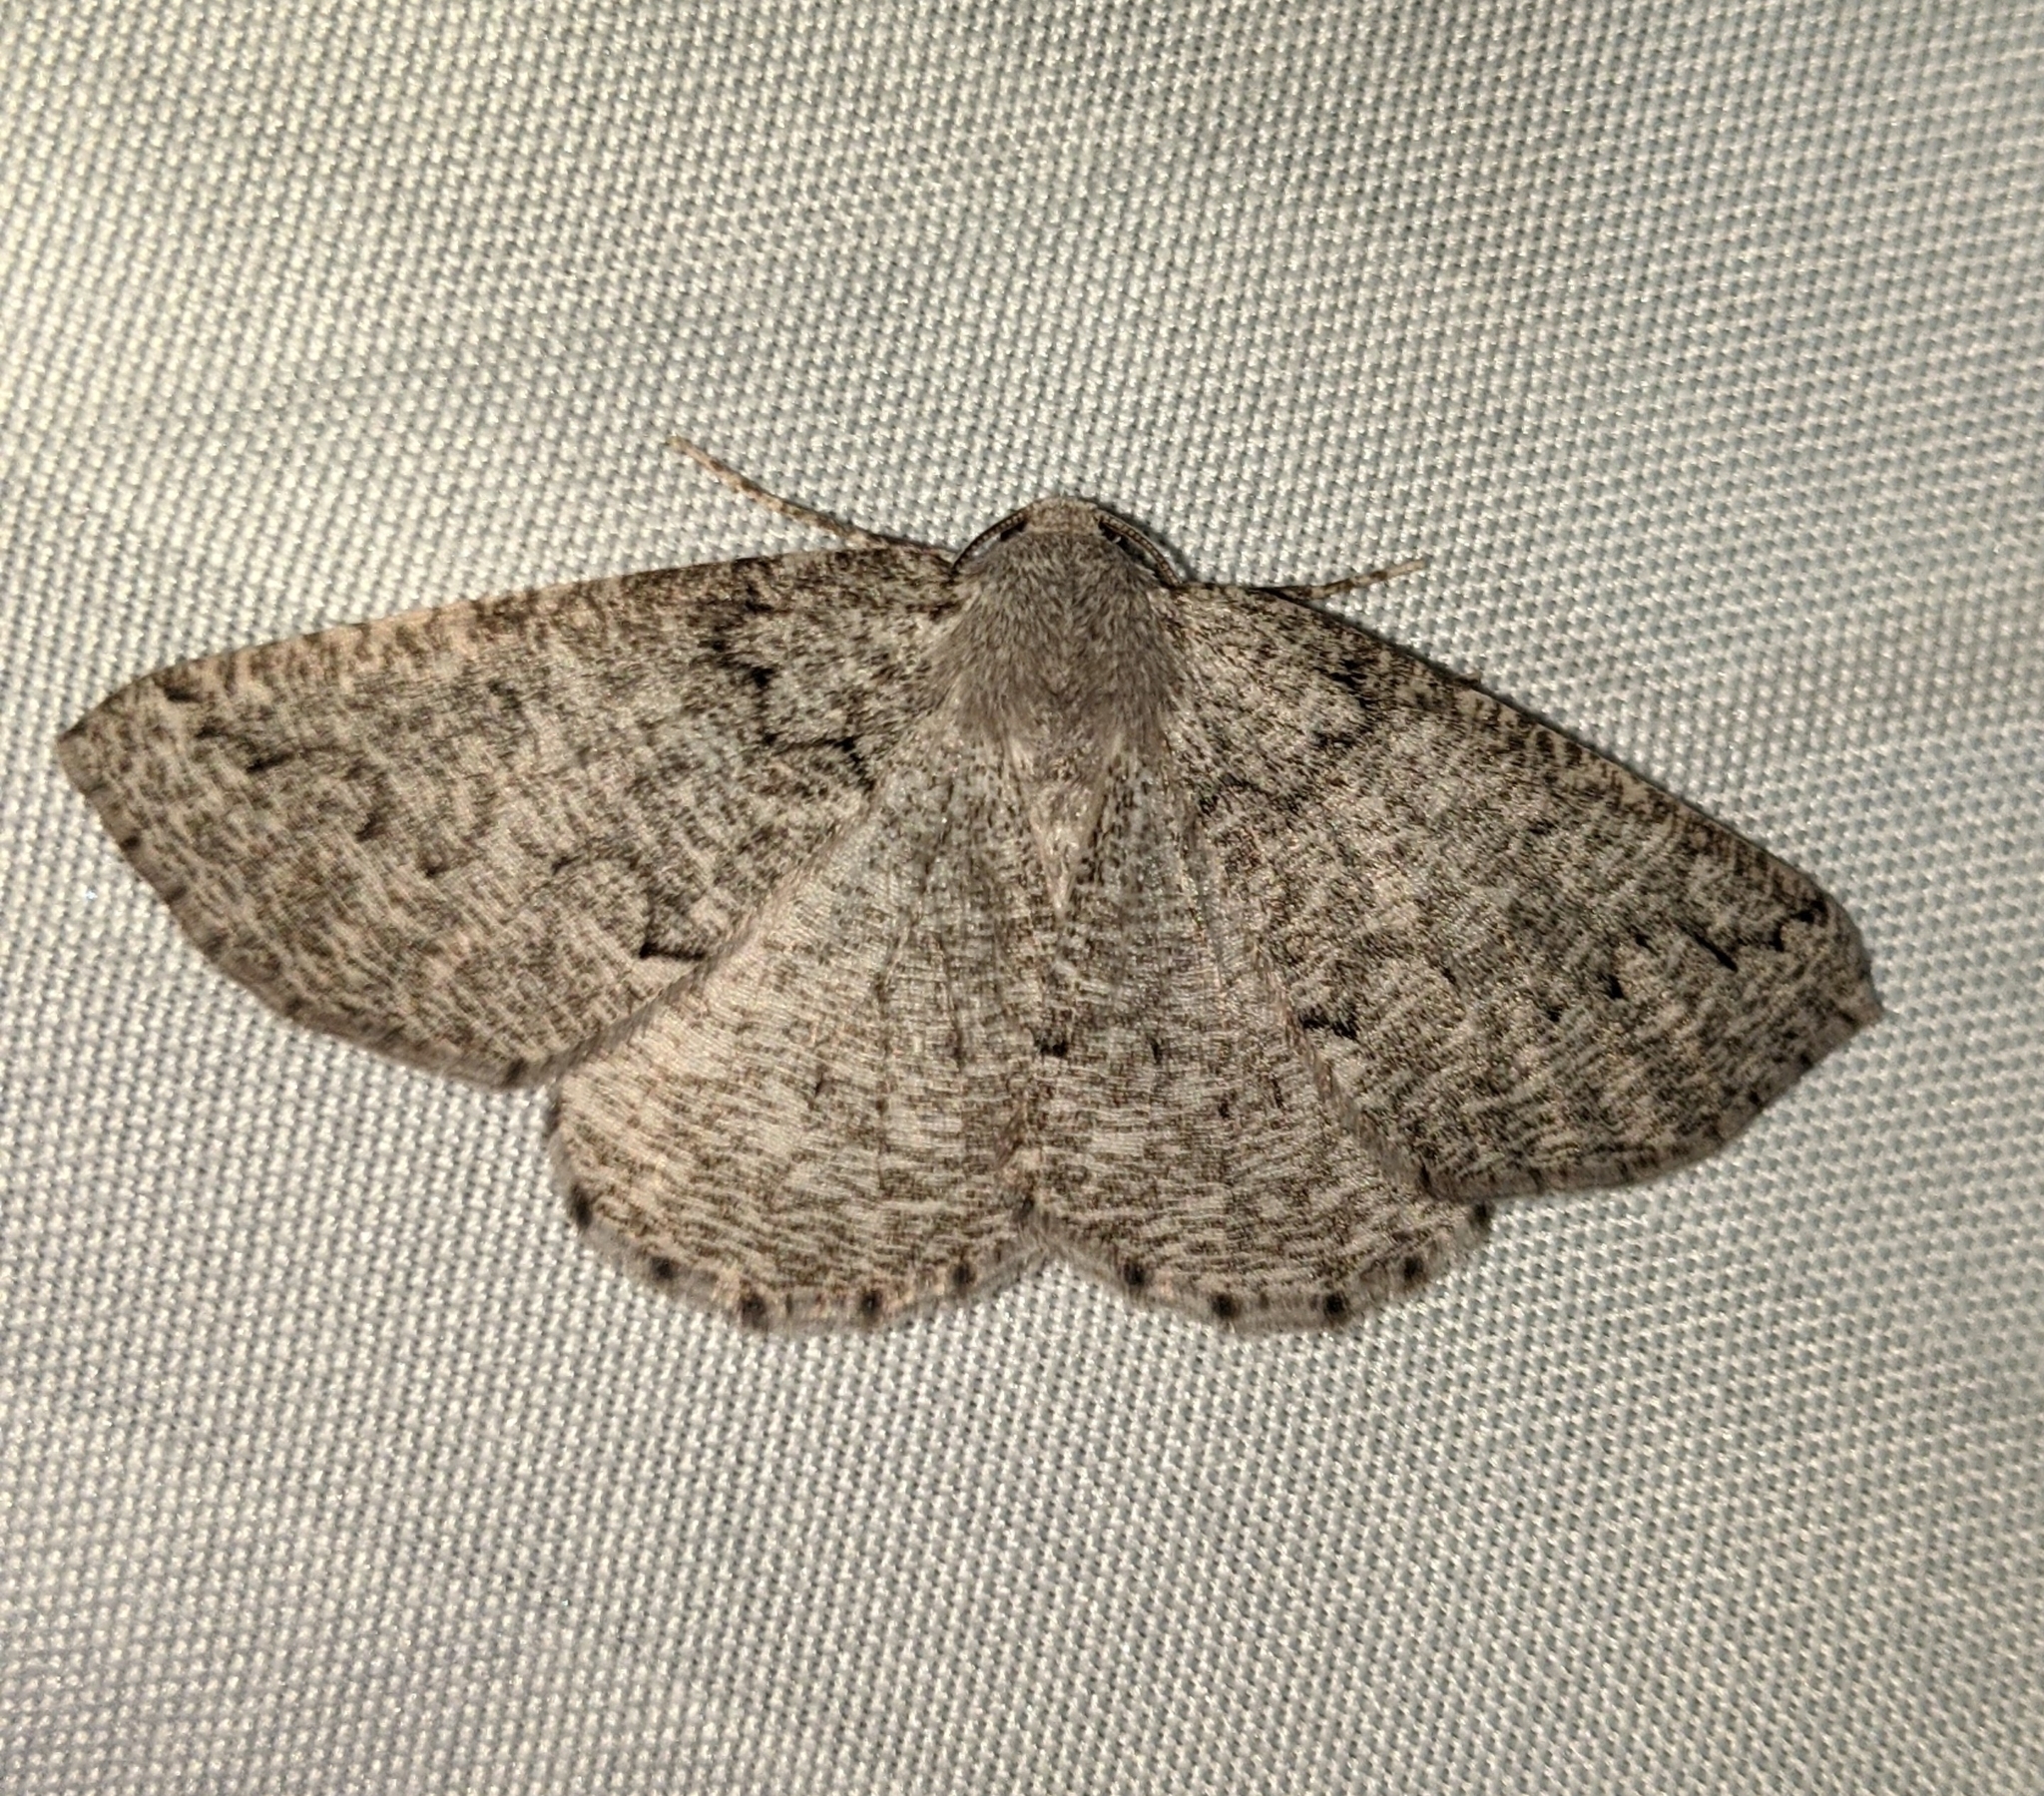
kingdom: Animalia
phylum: Arthropoda
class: Insecta
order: Lepidoptera
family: Geometridae
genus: Sabulodes
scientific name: Sabulodes
